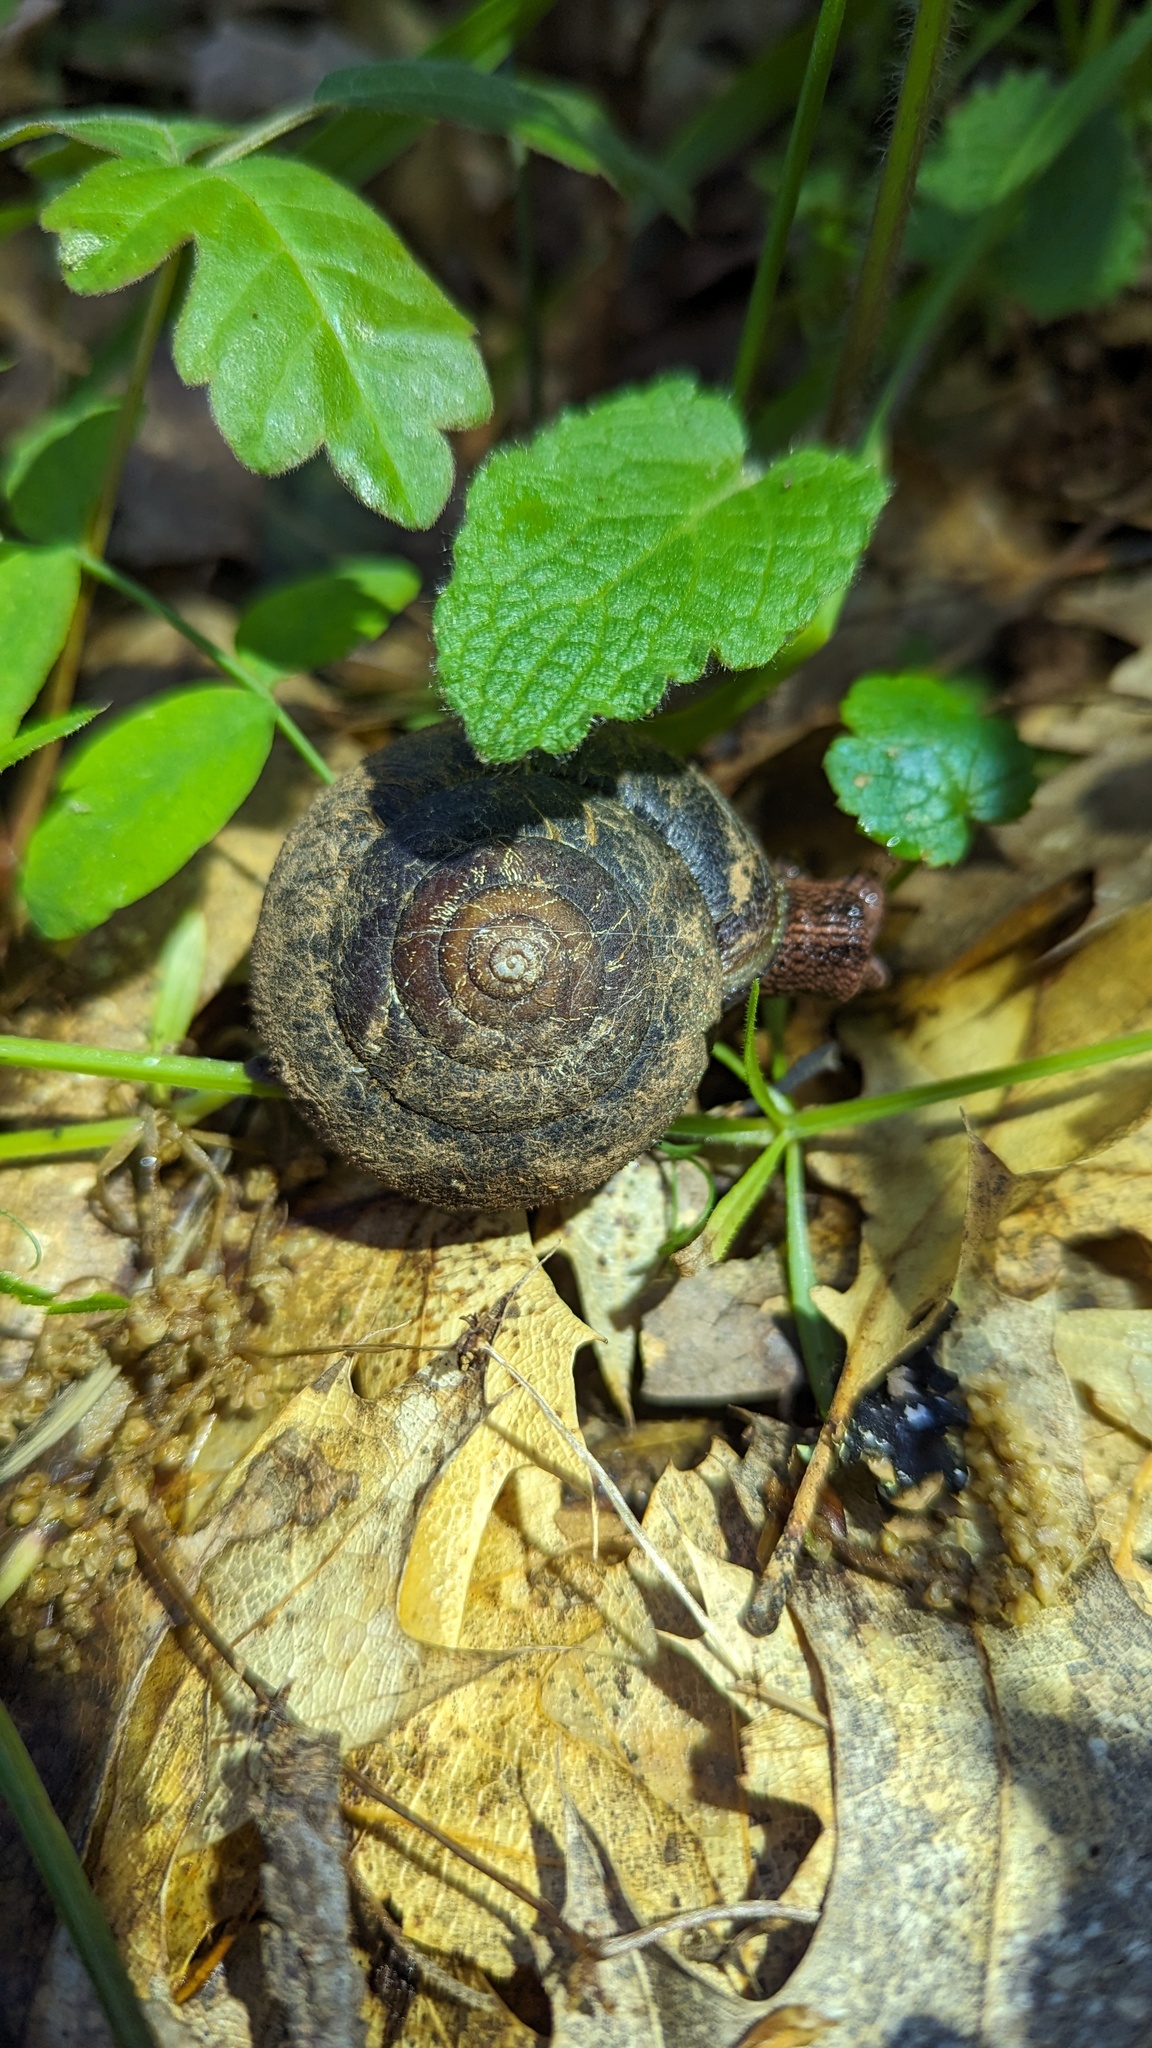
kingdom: Animalia
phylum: Mollusca
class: Gastropoda
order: Stylommatophora
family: Xanthonychidae
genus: Monadenia
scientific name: Monadenia infumata
